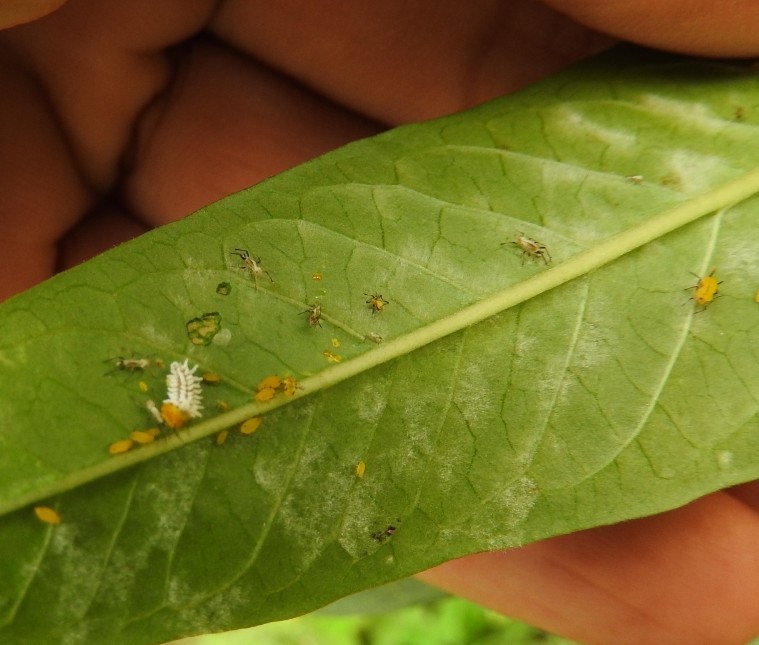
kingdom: Animalia
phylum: Arthropoda
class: Insecta
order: Hemiptera
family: Aphididae
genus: Aphis
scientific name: Aphis nerii
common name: Oleander aphid
